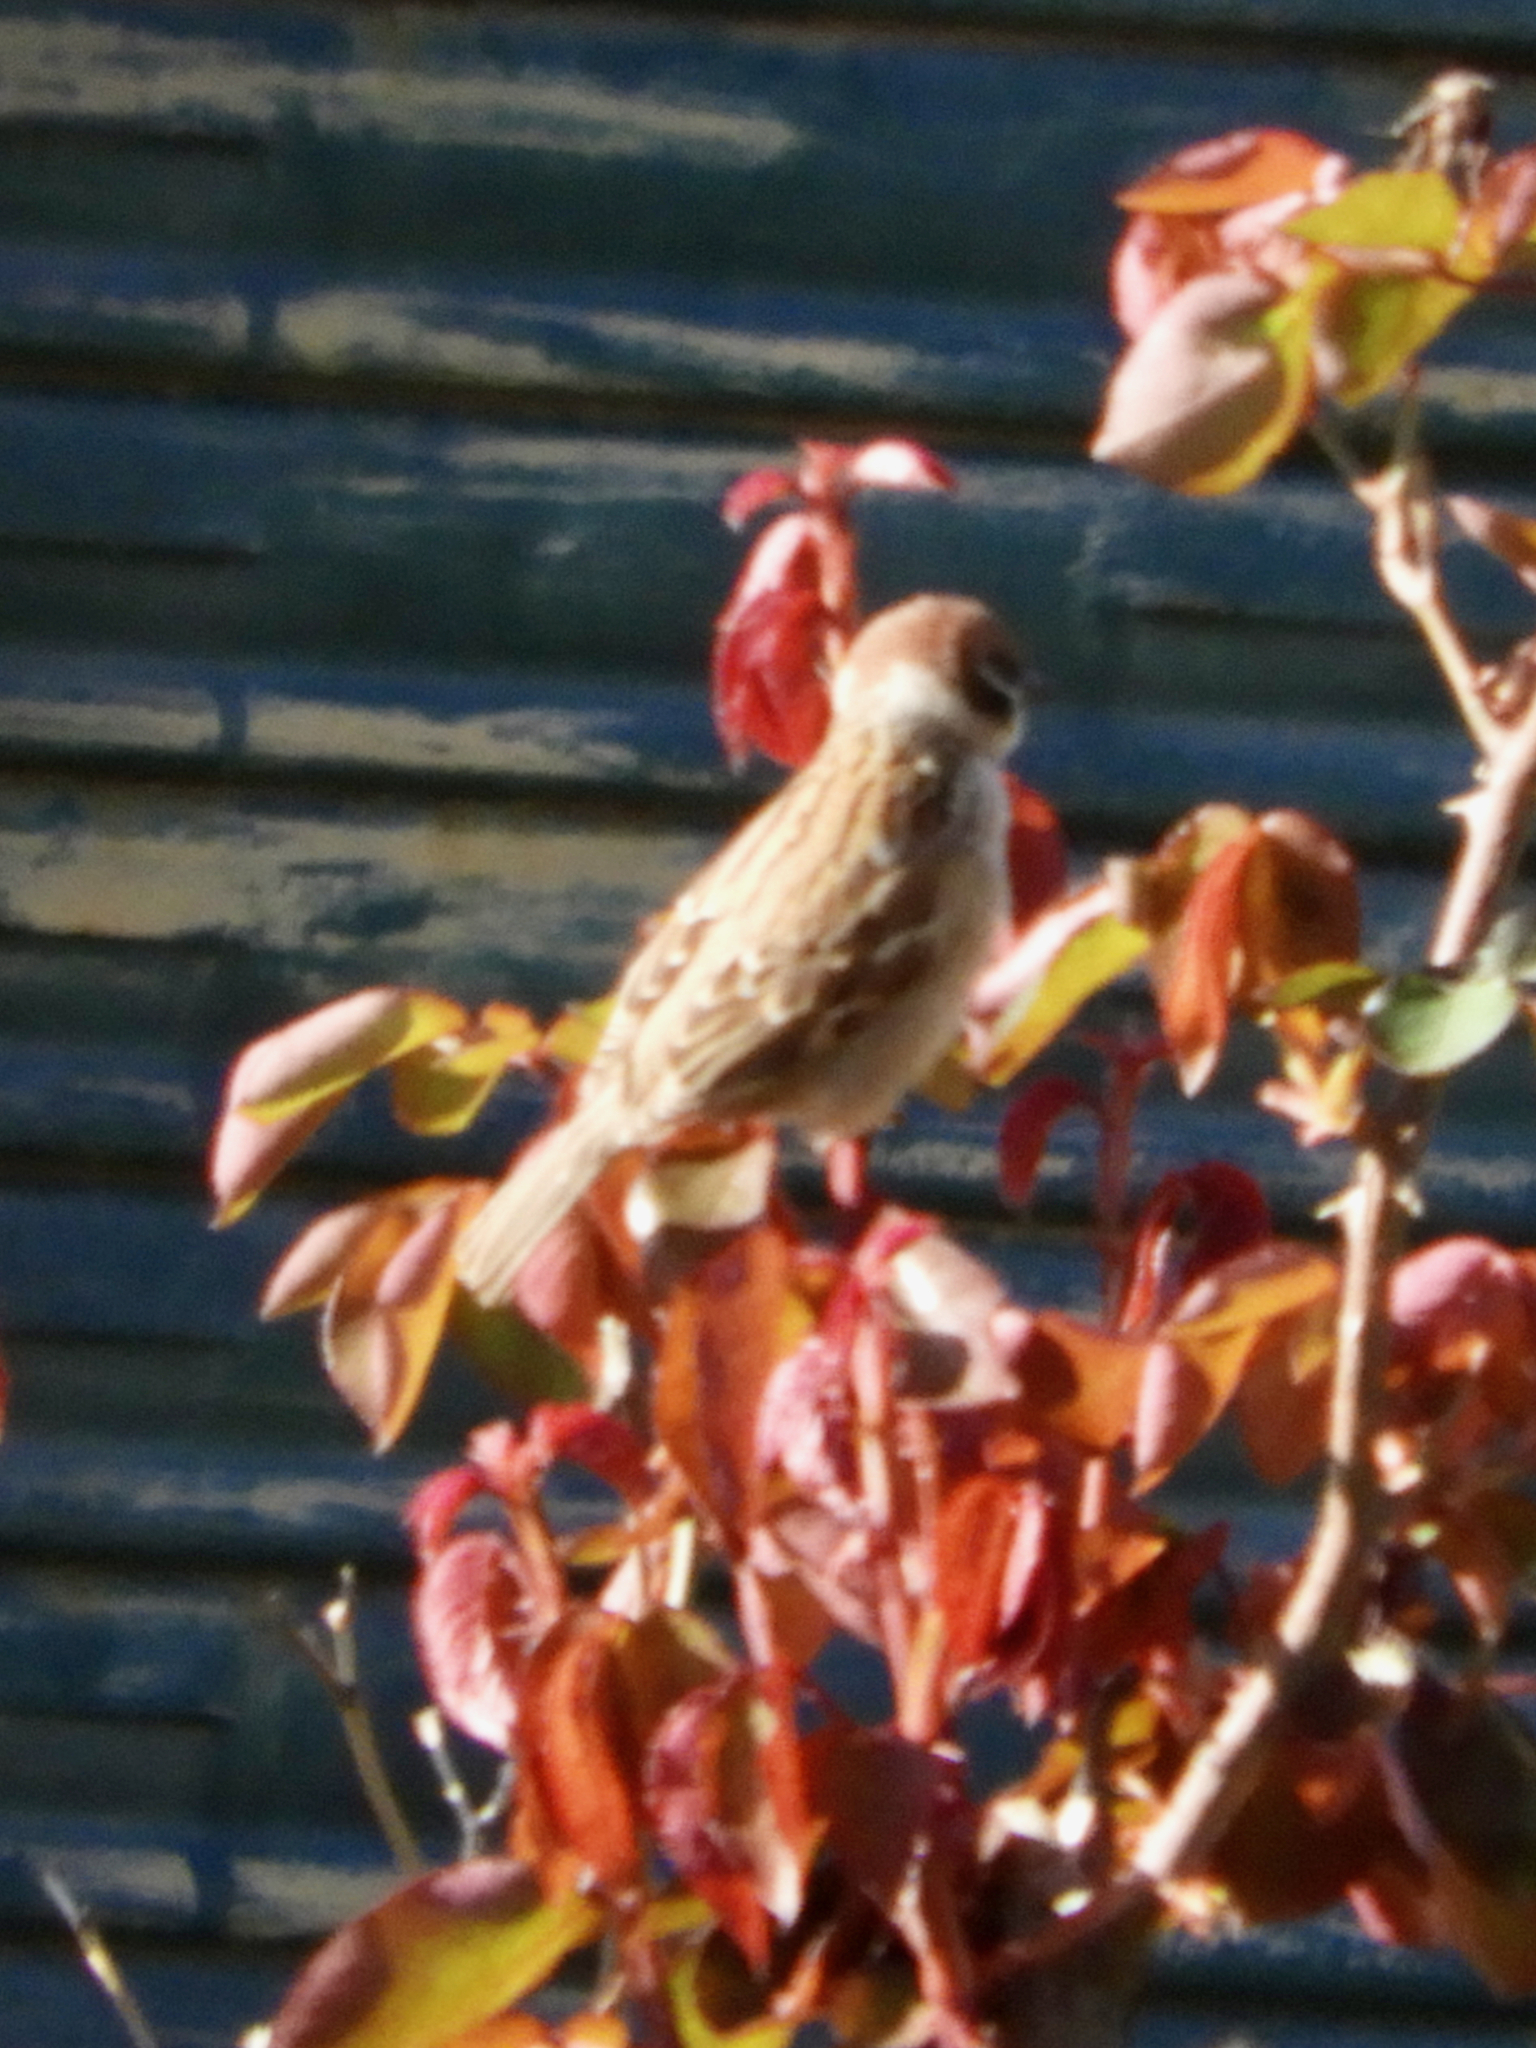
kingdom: Animalia
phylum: Chordata
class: Aves
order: Passeriformes
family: Passeridae
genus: Passer
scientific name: Passer montanus
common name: Eurasian tree sparrow
